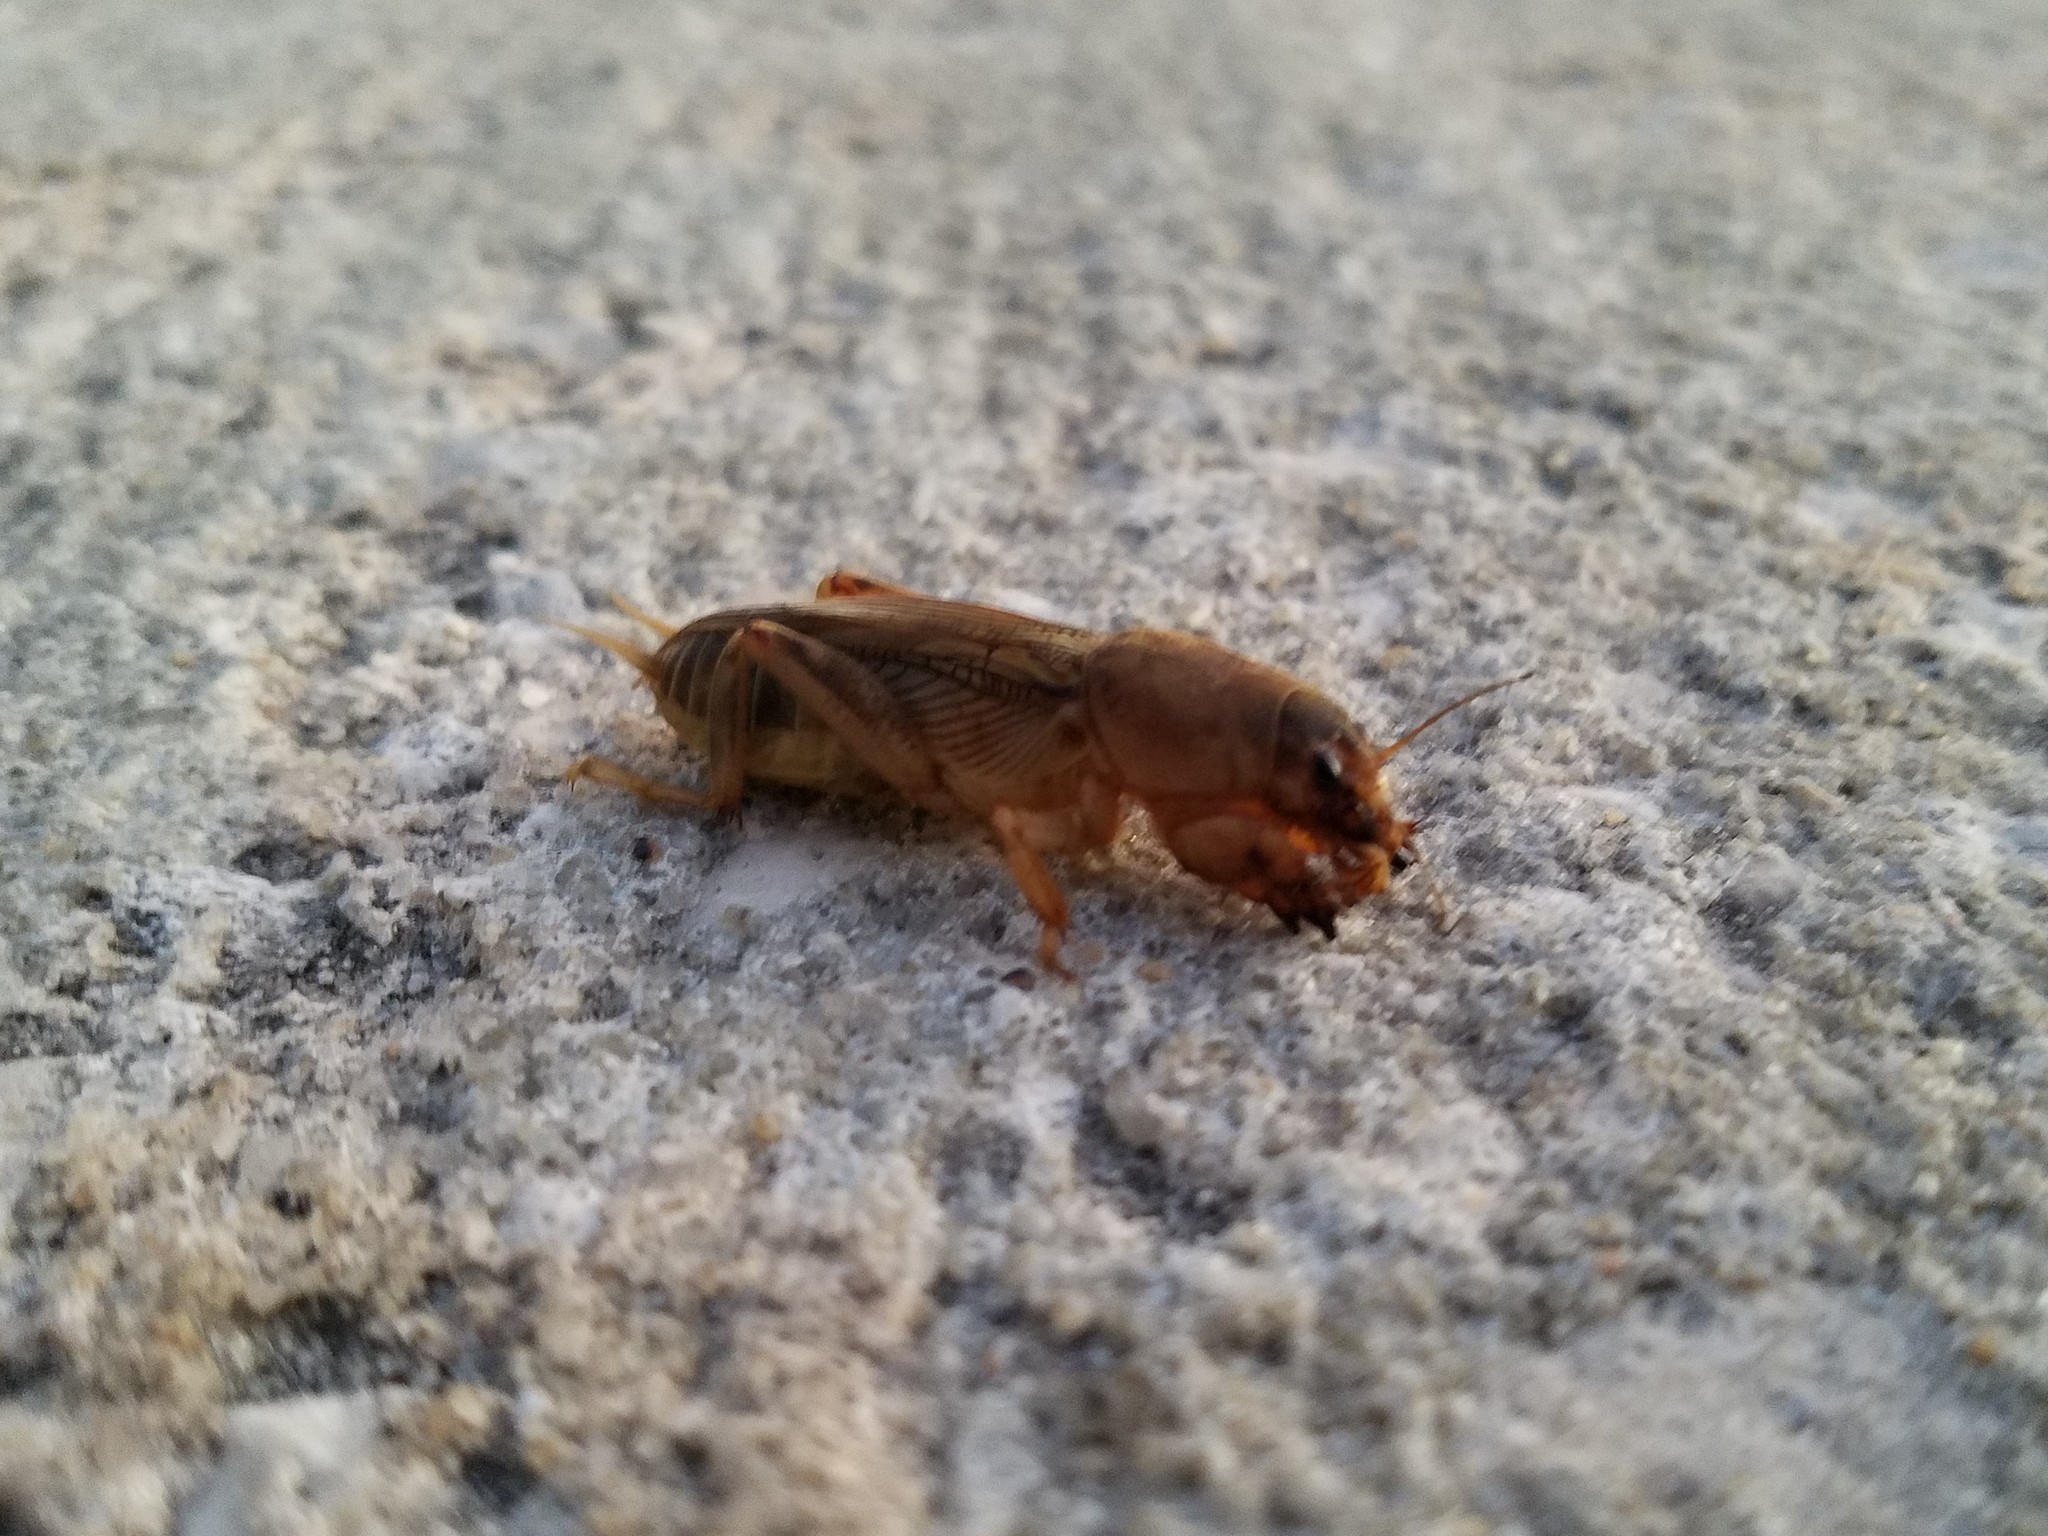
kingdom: Animalia
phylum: Arthropoda
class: Insecta
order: Orthoptera
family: Gryllotalpidae
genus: Neoscapteriscus
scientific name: Neoscapteriscus vicinus
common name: Tawny mole cricket
